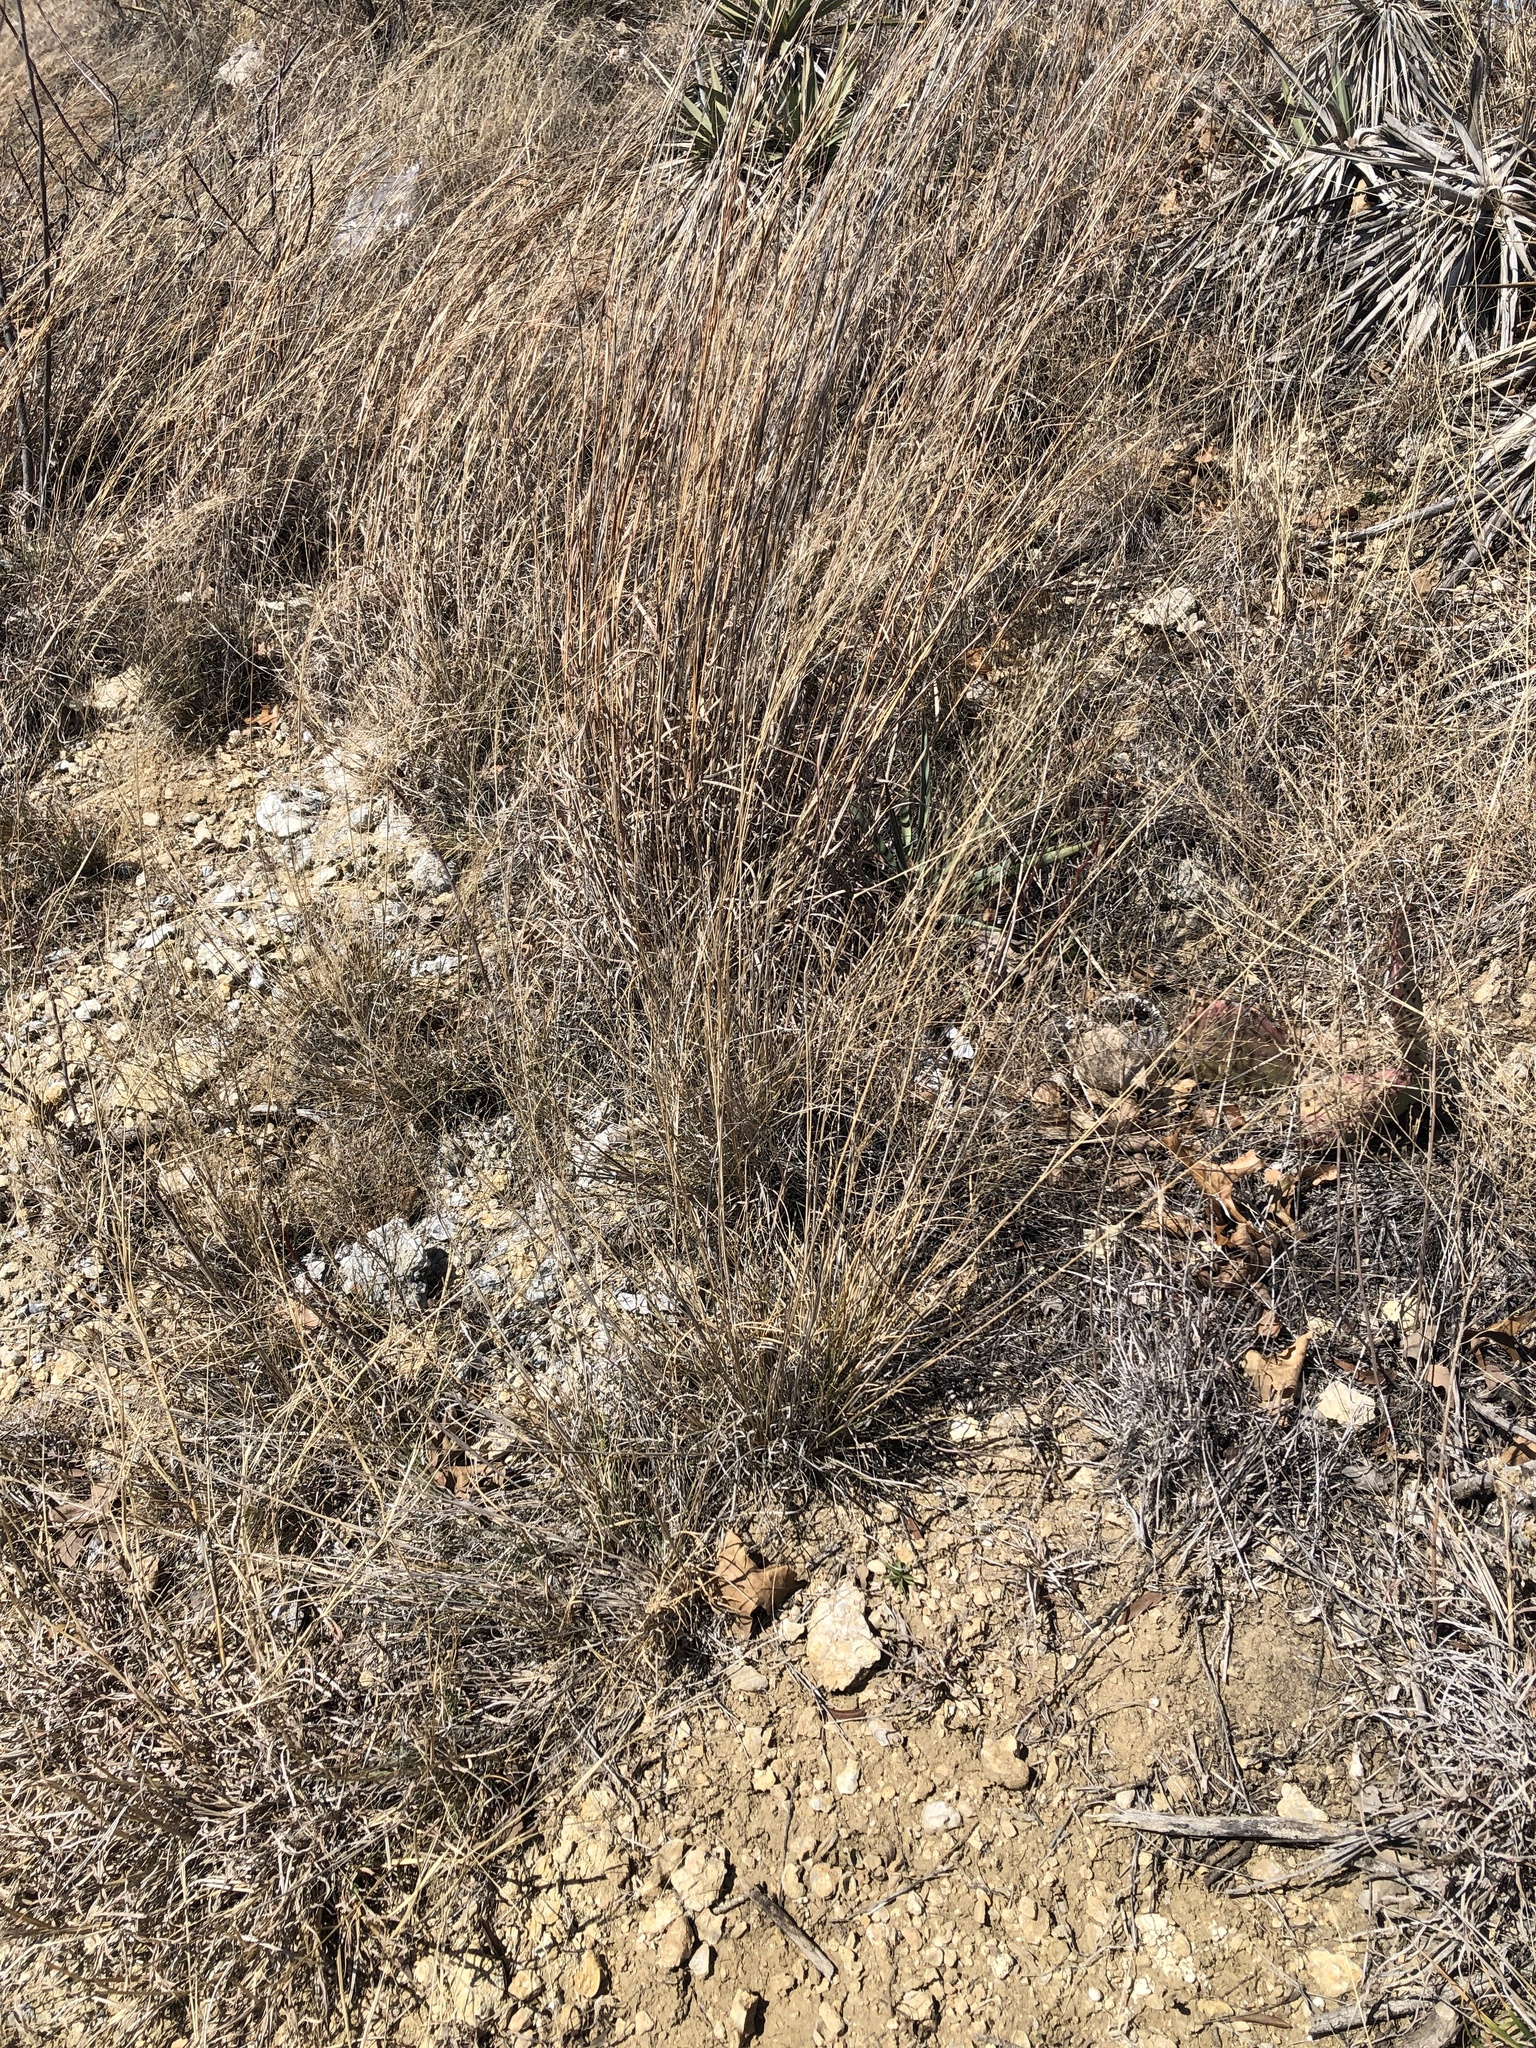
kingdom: Plantae
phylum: Tracheophyta
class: Liliopsida
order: Poales
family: Poaceae
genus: Muhlenbergia
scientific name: Muhlenbergia reverchonii
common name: Seep muhly
